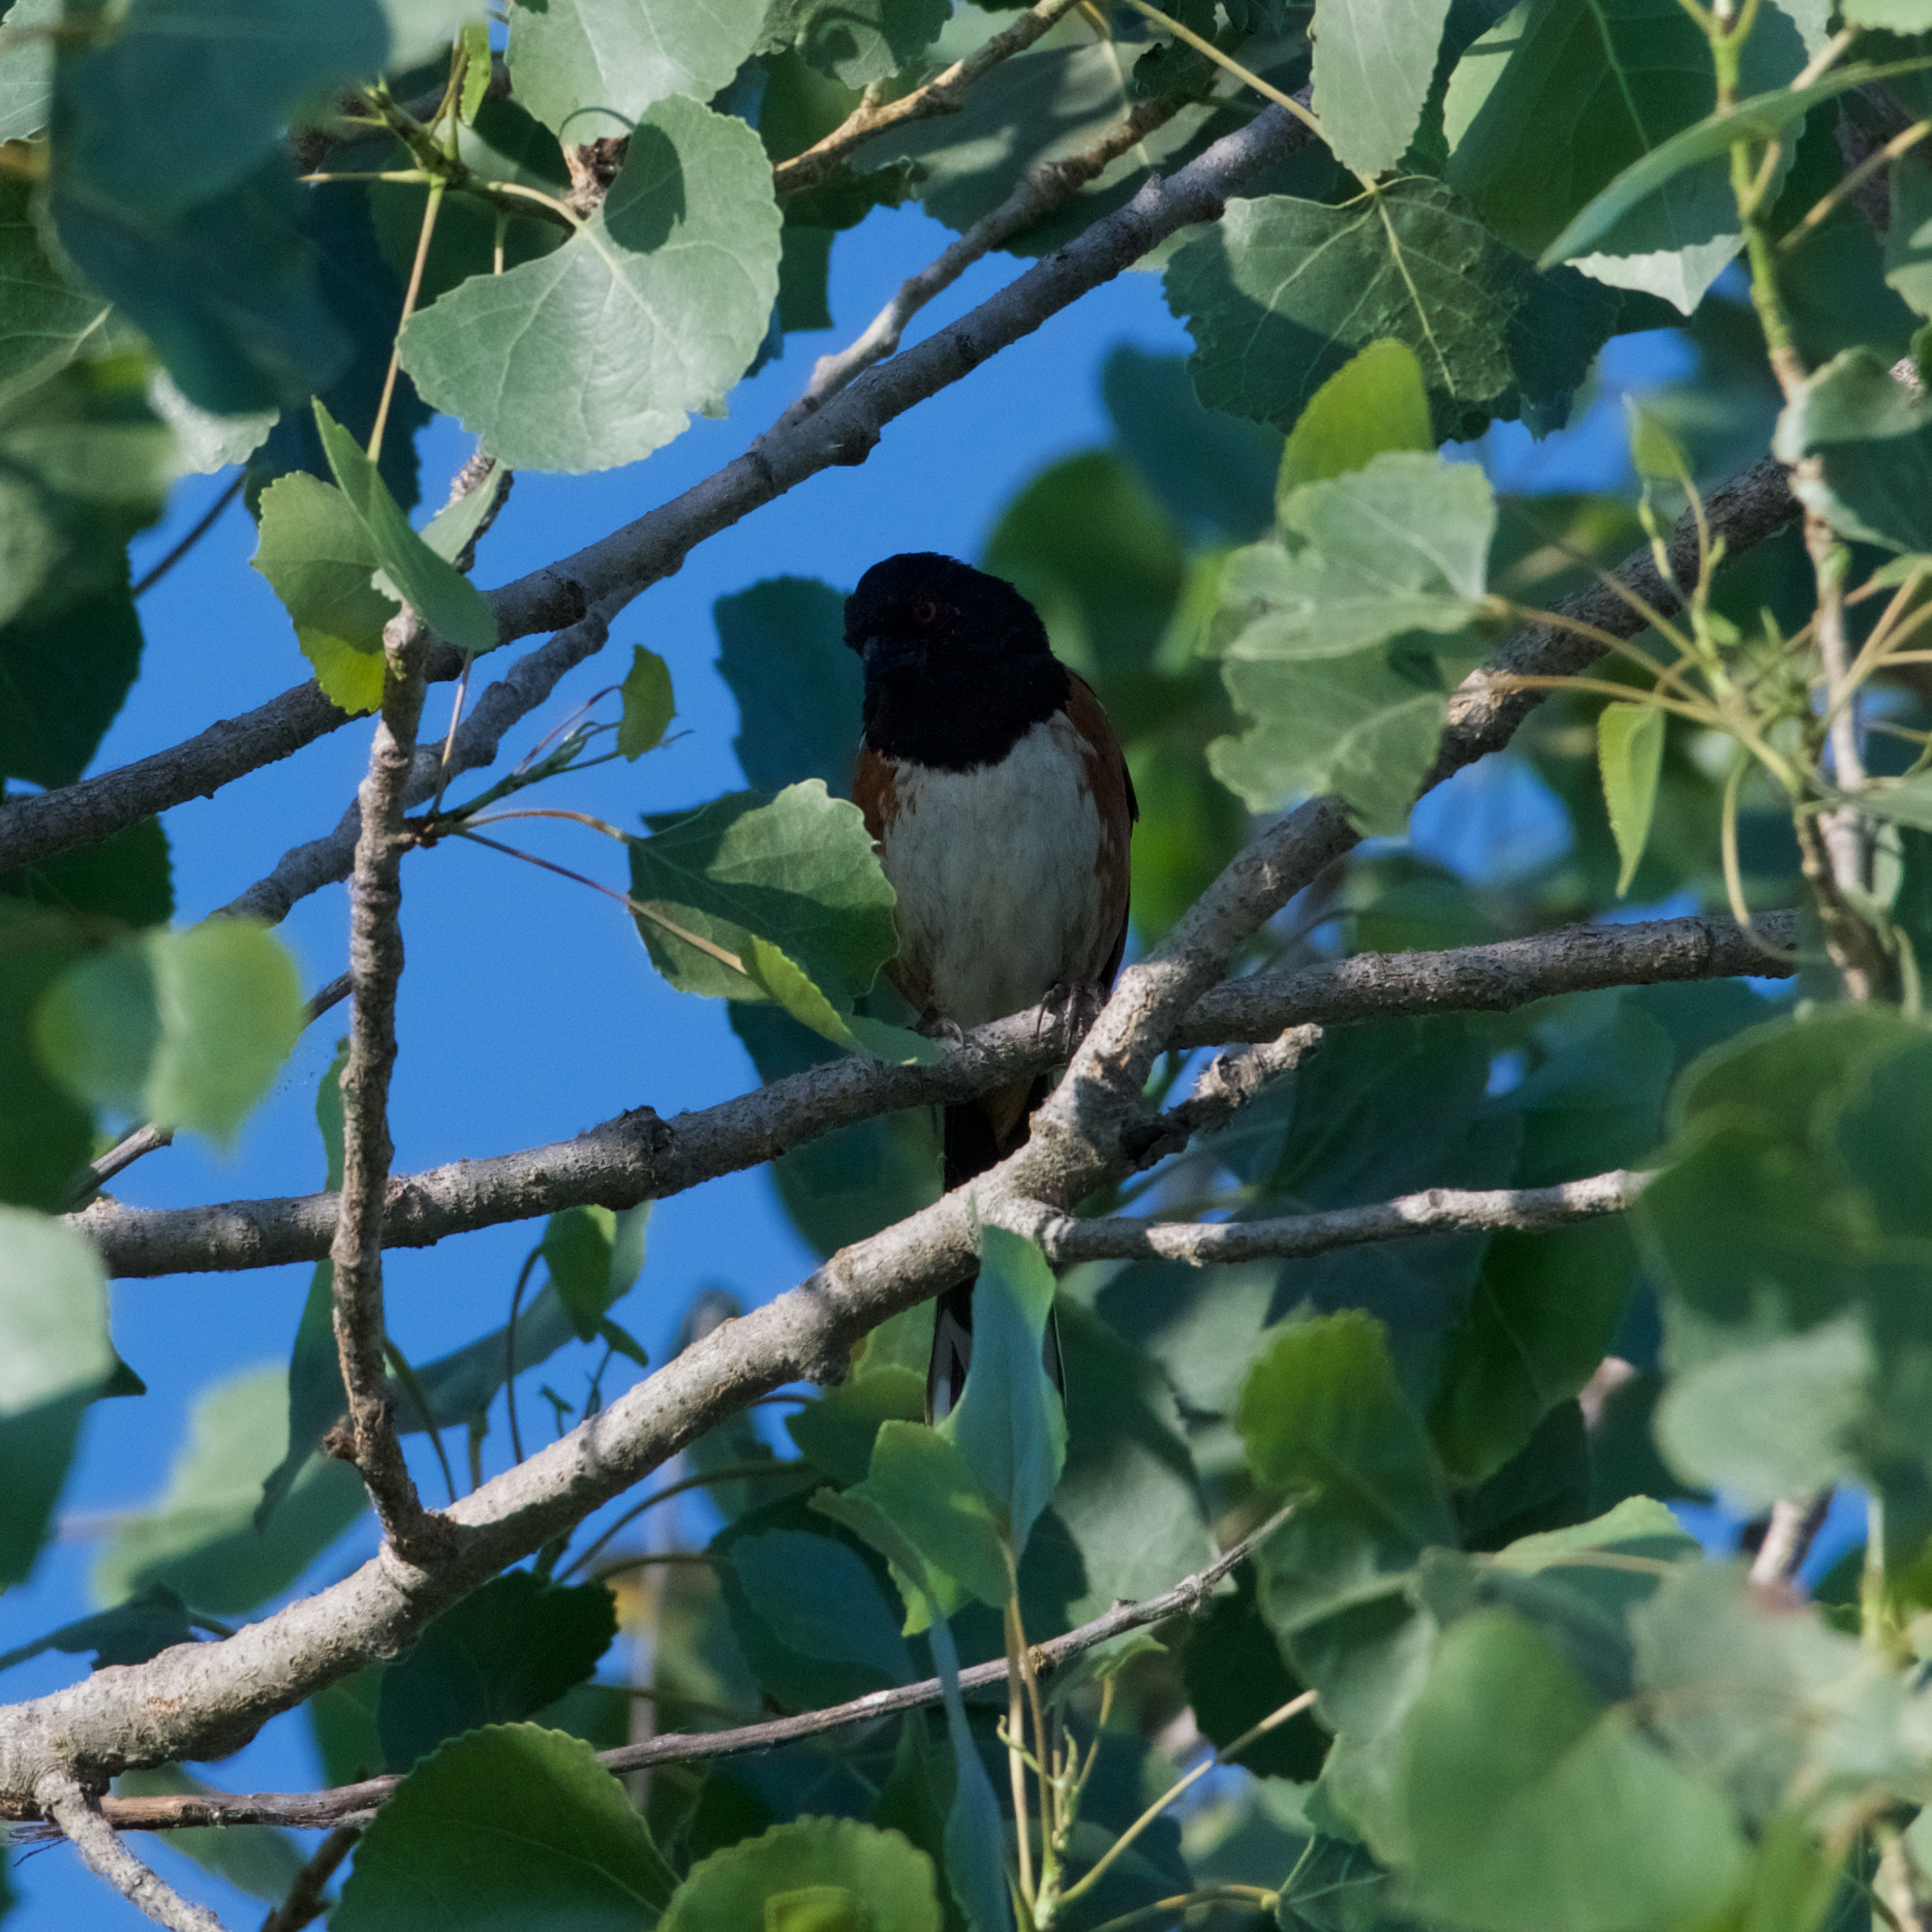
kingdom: Animalia
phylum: Chordata
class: Aves
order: Passeriformes
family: Passerellidae
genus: Pipilo
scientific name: Pipilo maculatus
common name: Spotted towhee
